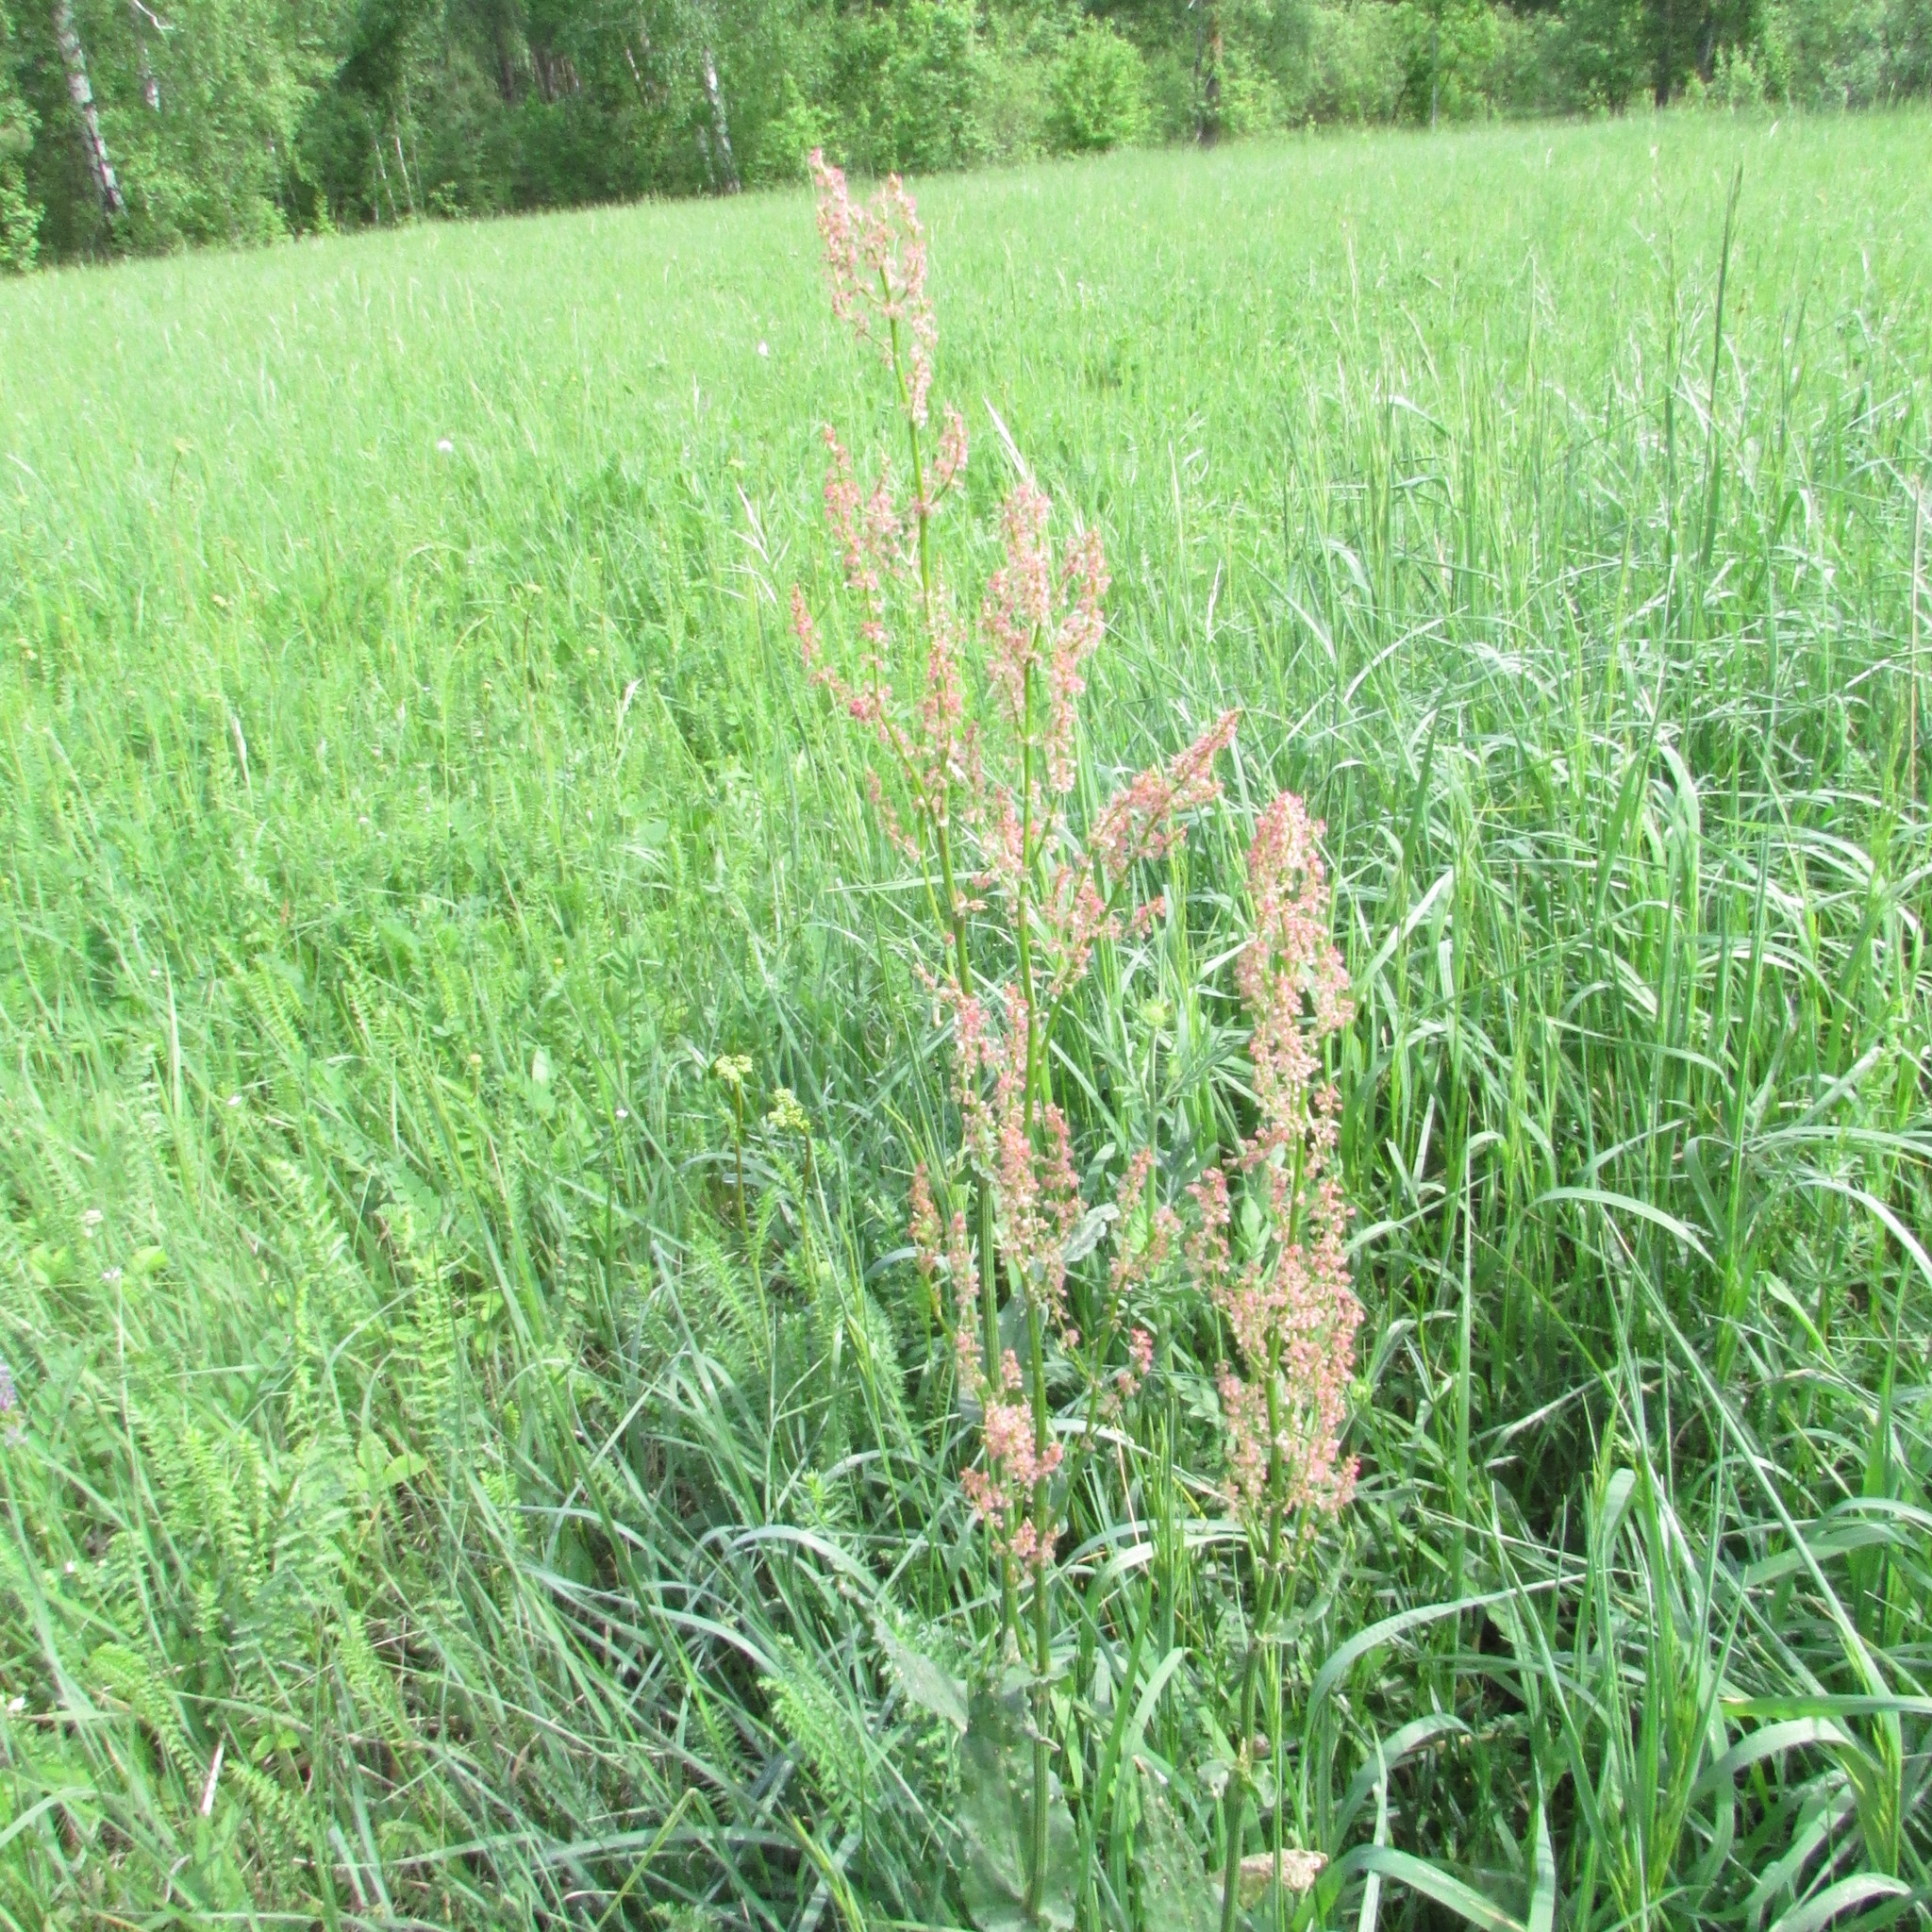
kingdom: Plantae
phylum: Tracheophyta
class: Magnoliopsida
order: Caryophyllales
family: Polygonaceae
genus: Rumex
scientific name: Rumex thyrsiflorus
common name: Garden sorrel
